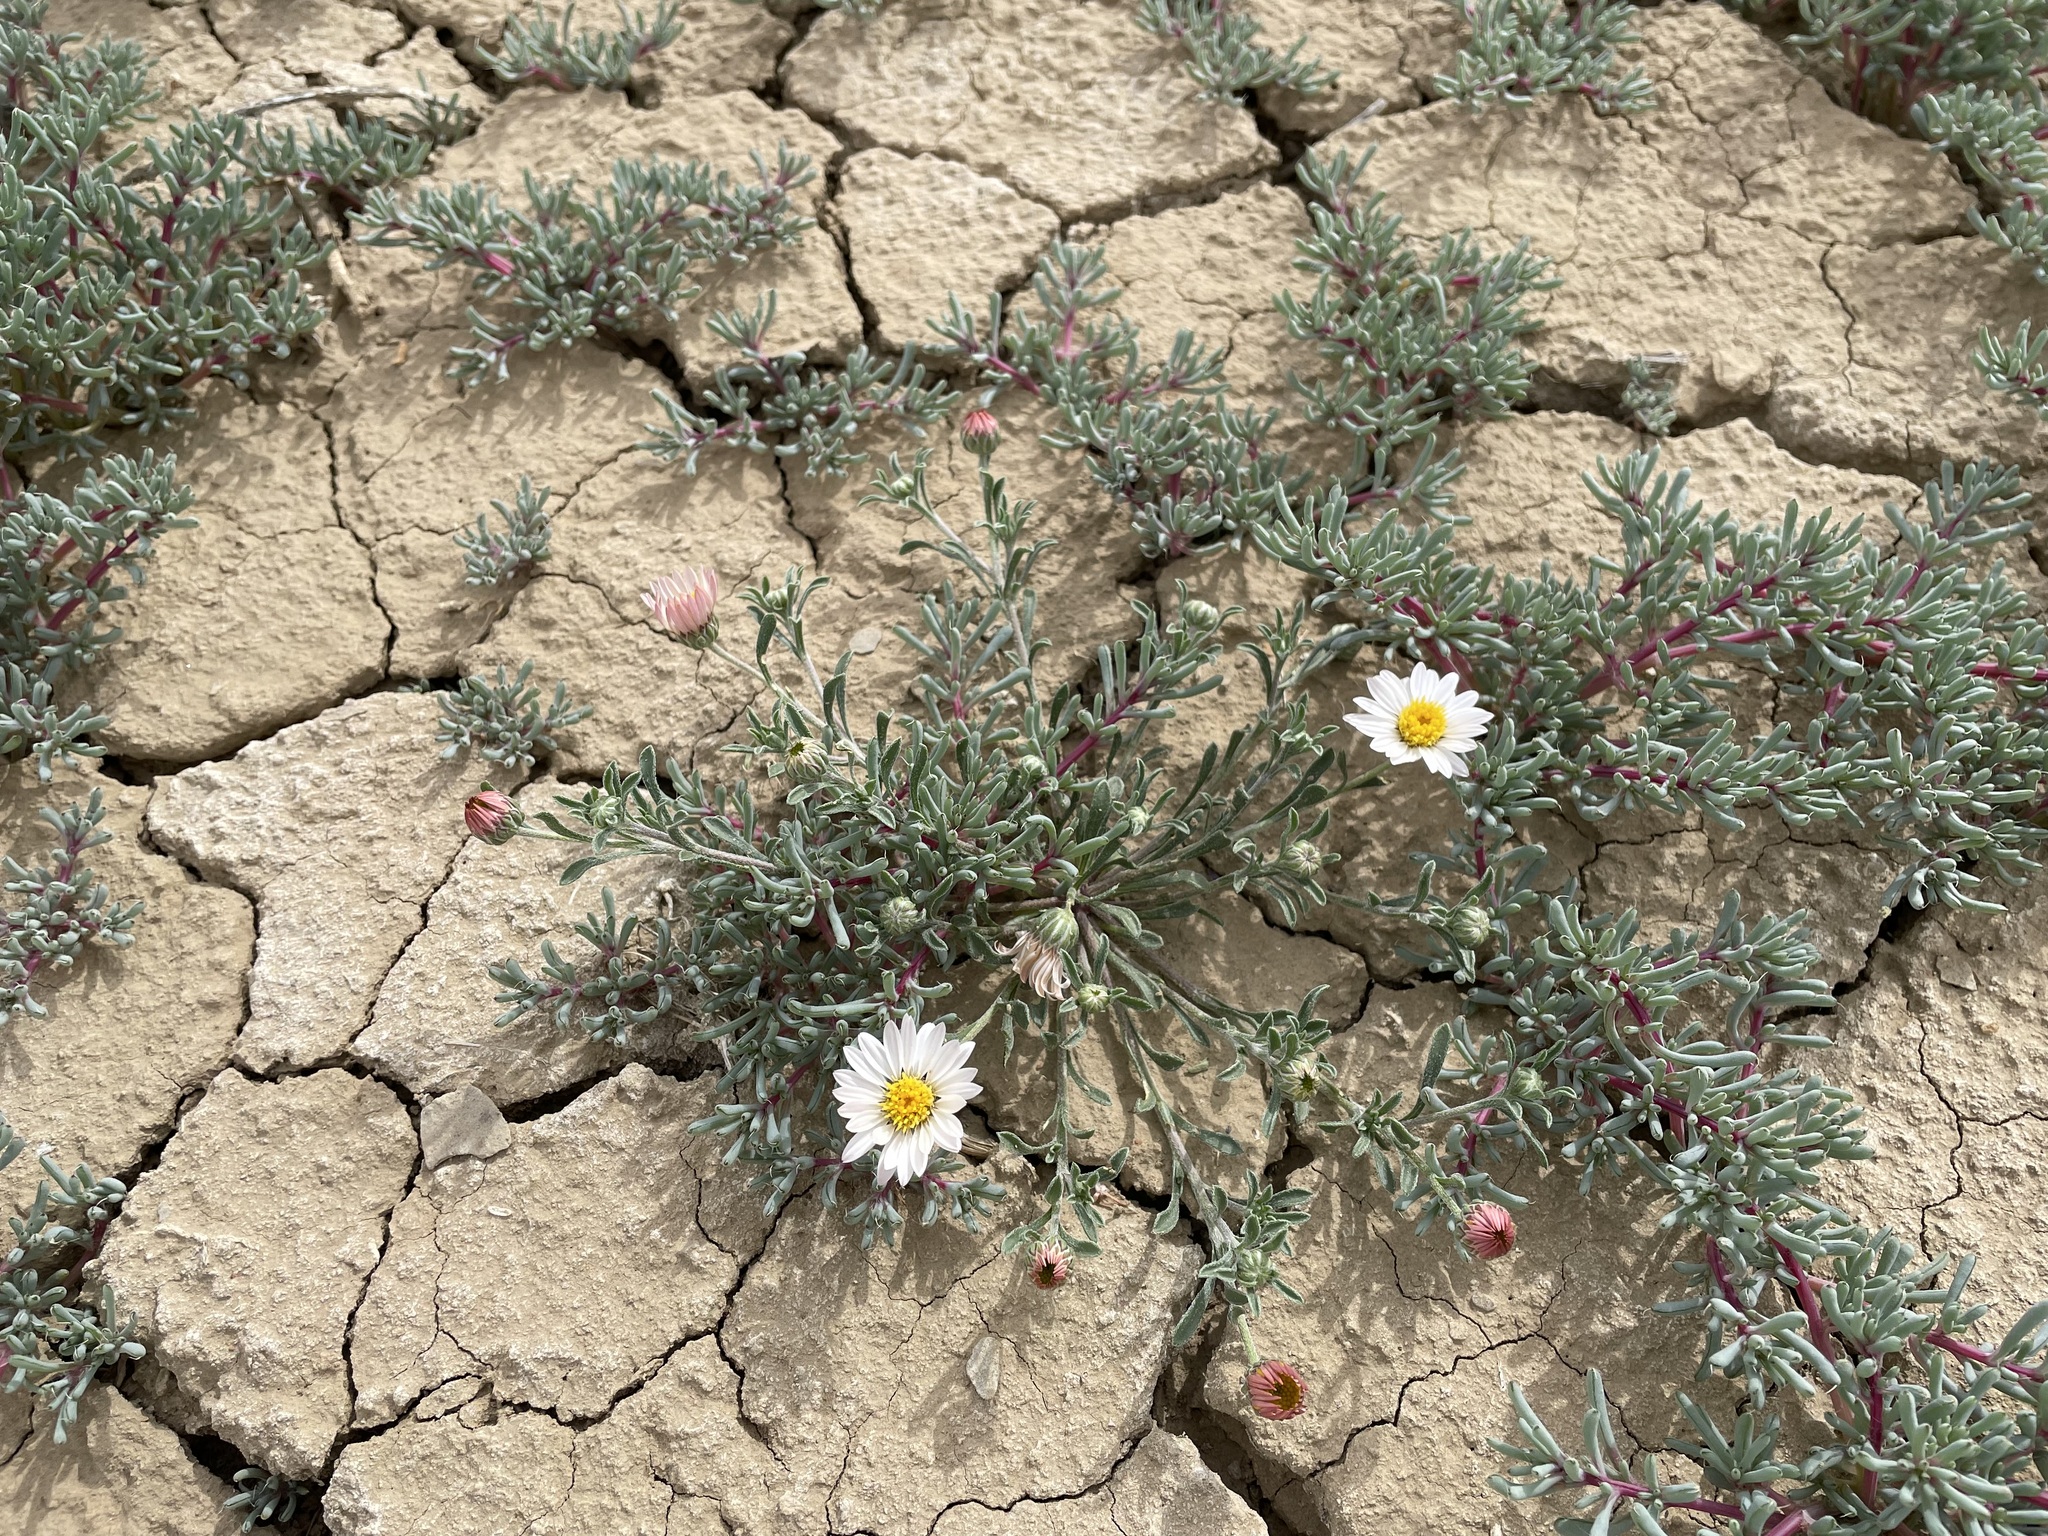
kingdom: Plantae
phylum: Tracheophyta
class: Magnoliopsida
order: Caryophyllales
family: Amaranthaceae
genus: Halogeton
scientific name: Halogeton glomeratus
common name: Saltlover
